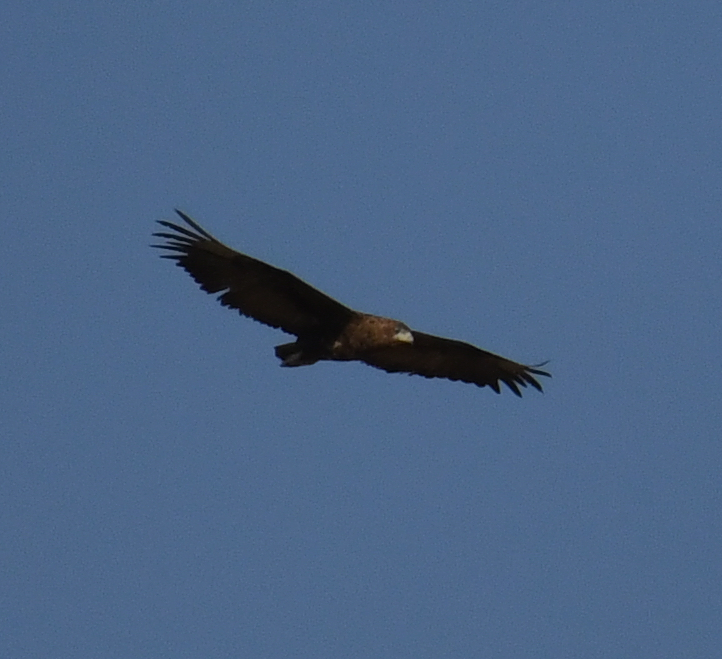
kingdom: Animalia
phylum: Chordata
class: Aves
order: Accipitriformes
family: Accipitridae
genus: Terathopius
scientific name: Terathopius ecaudatus
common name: Bateleur
